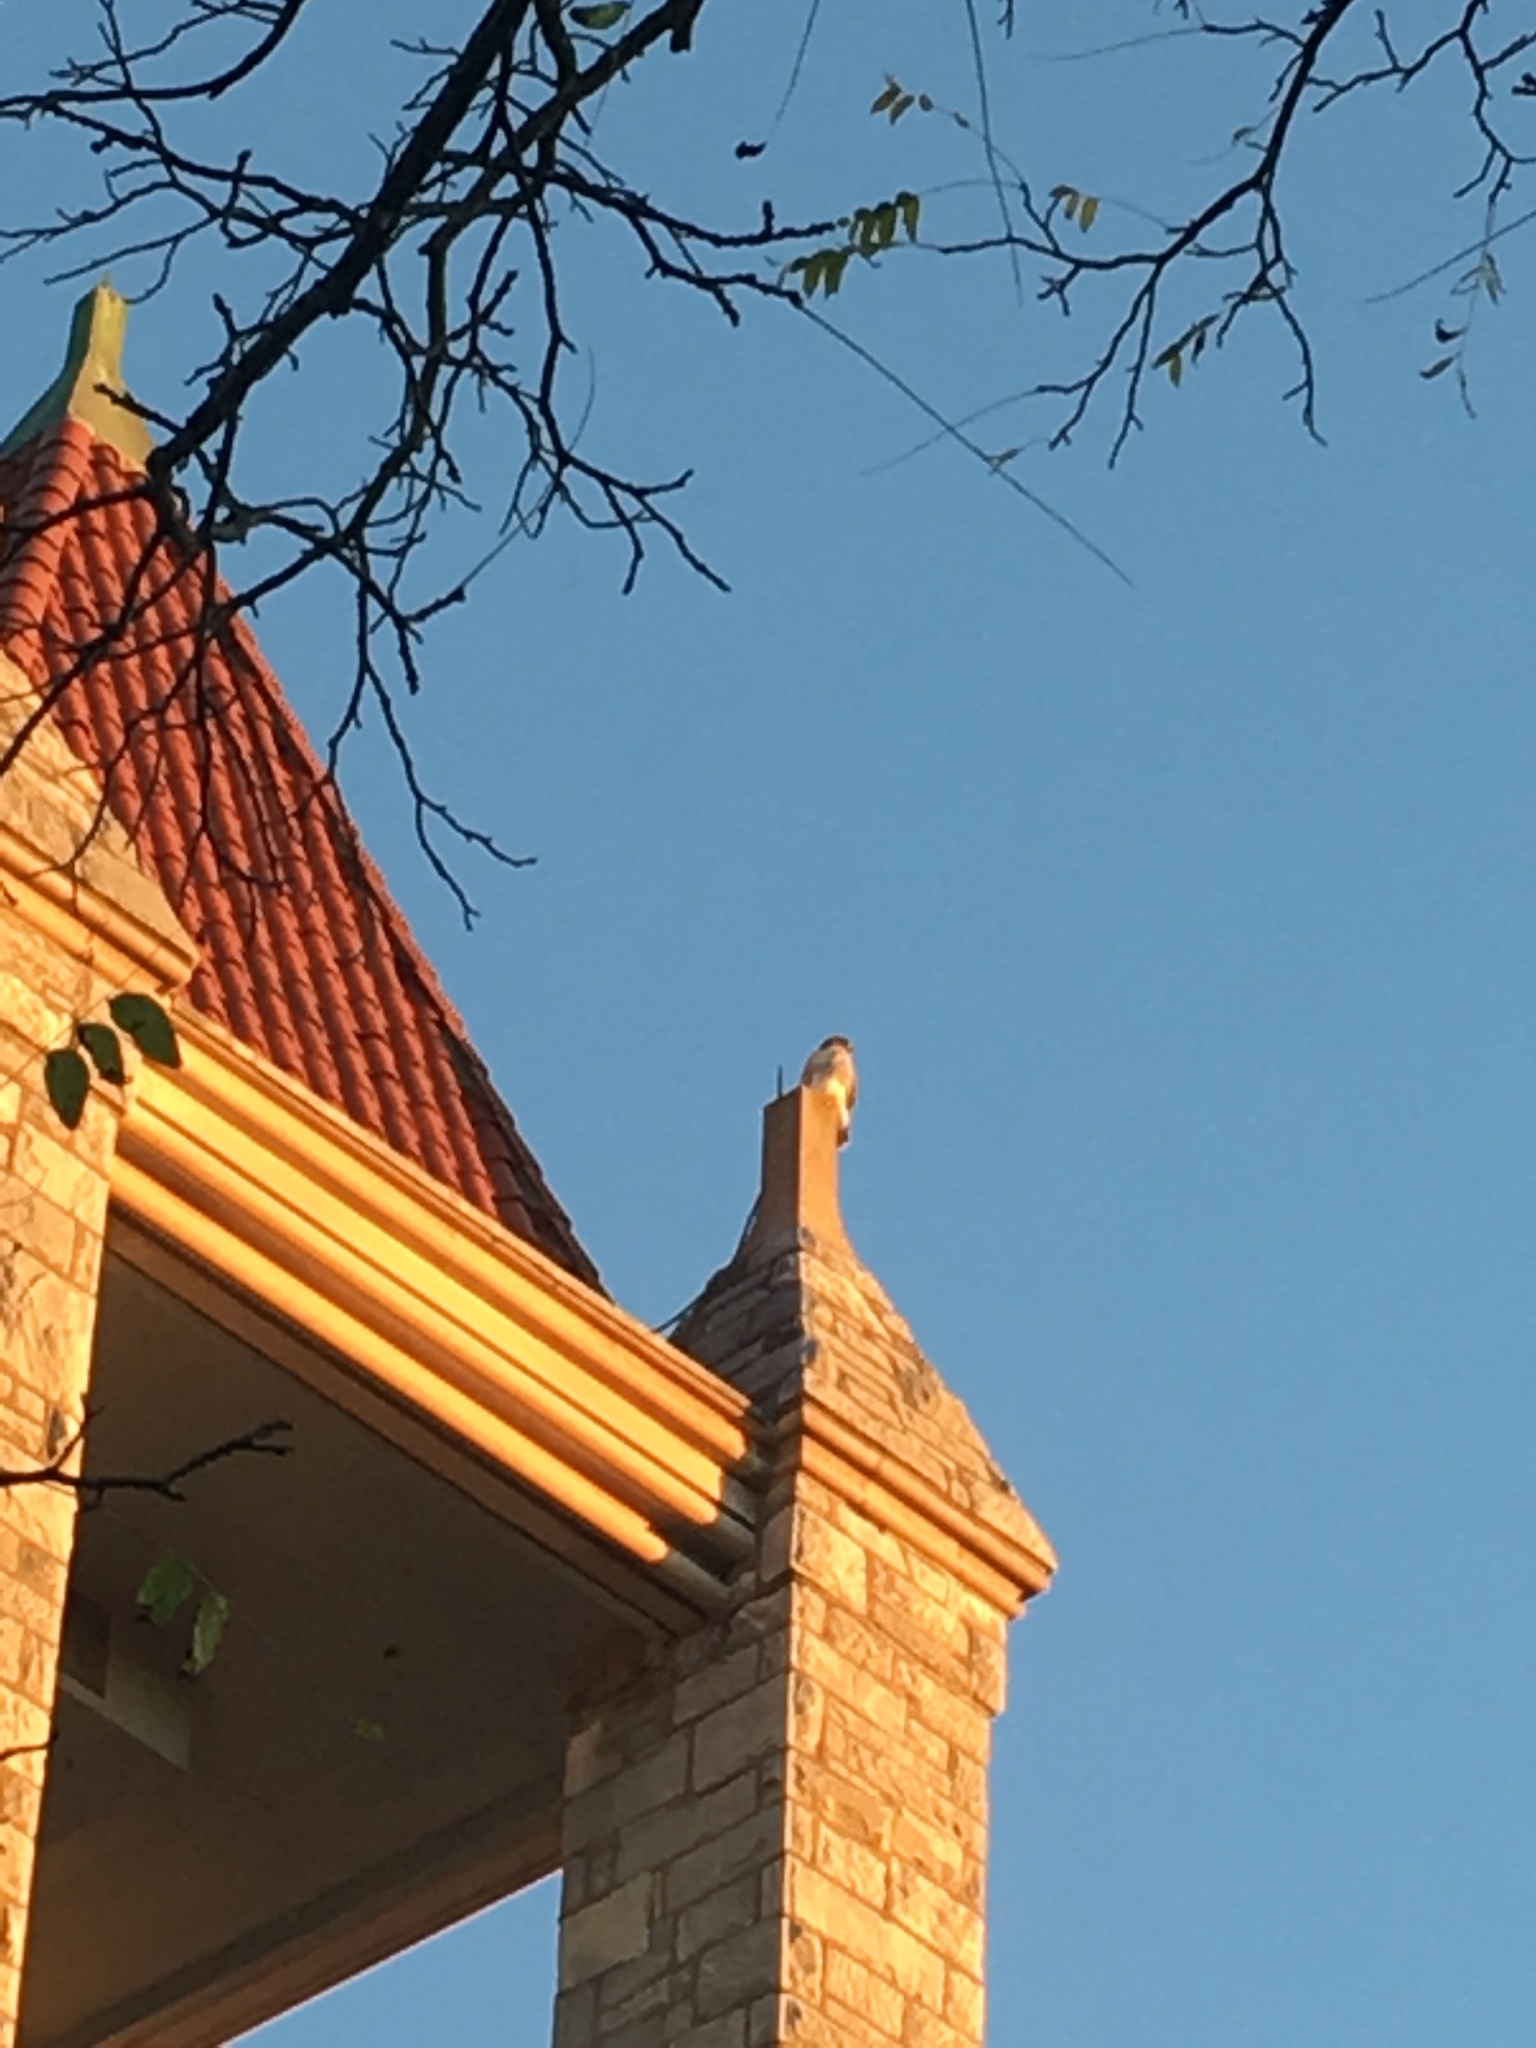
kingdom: Animalia
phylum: Chordata
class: Aves
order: Accipitriformes
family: Accipitridae
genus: Buteo
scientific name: Buteo jamaicensis
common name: Red-tailed hawk
